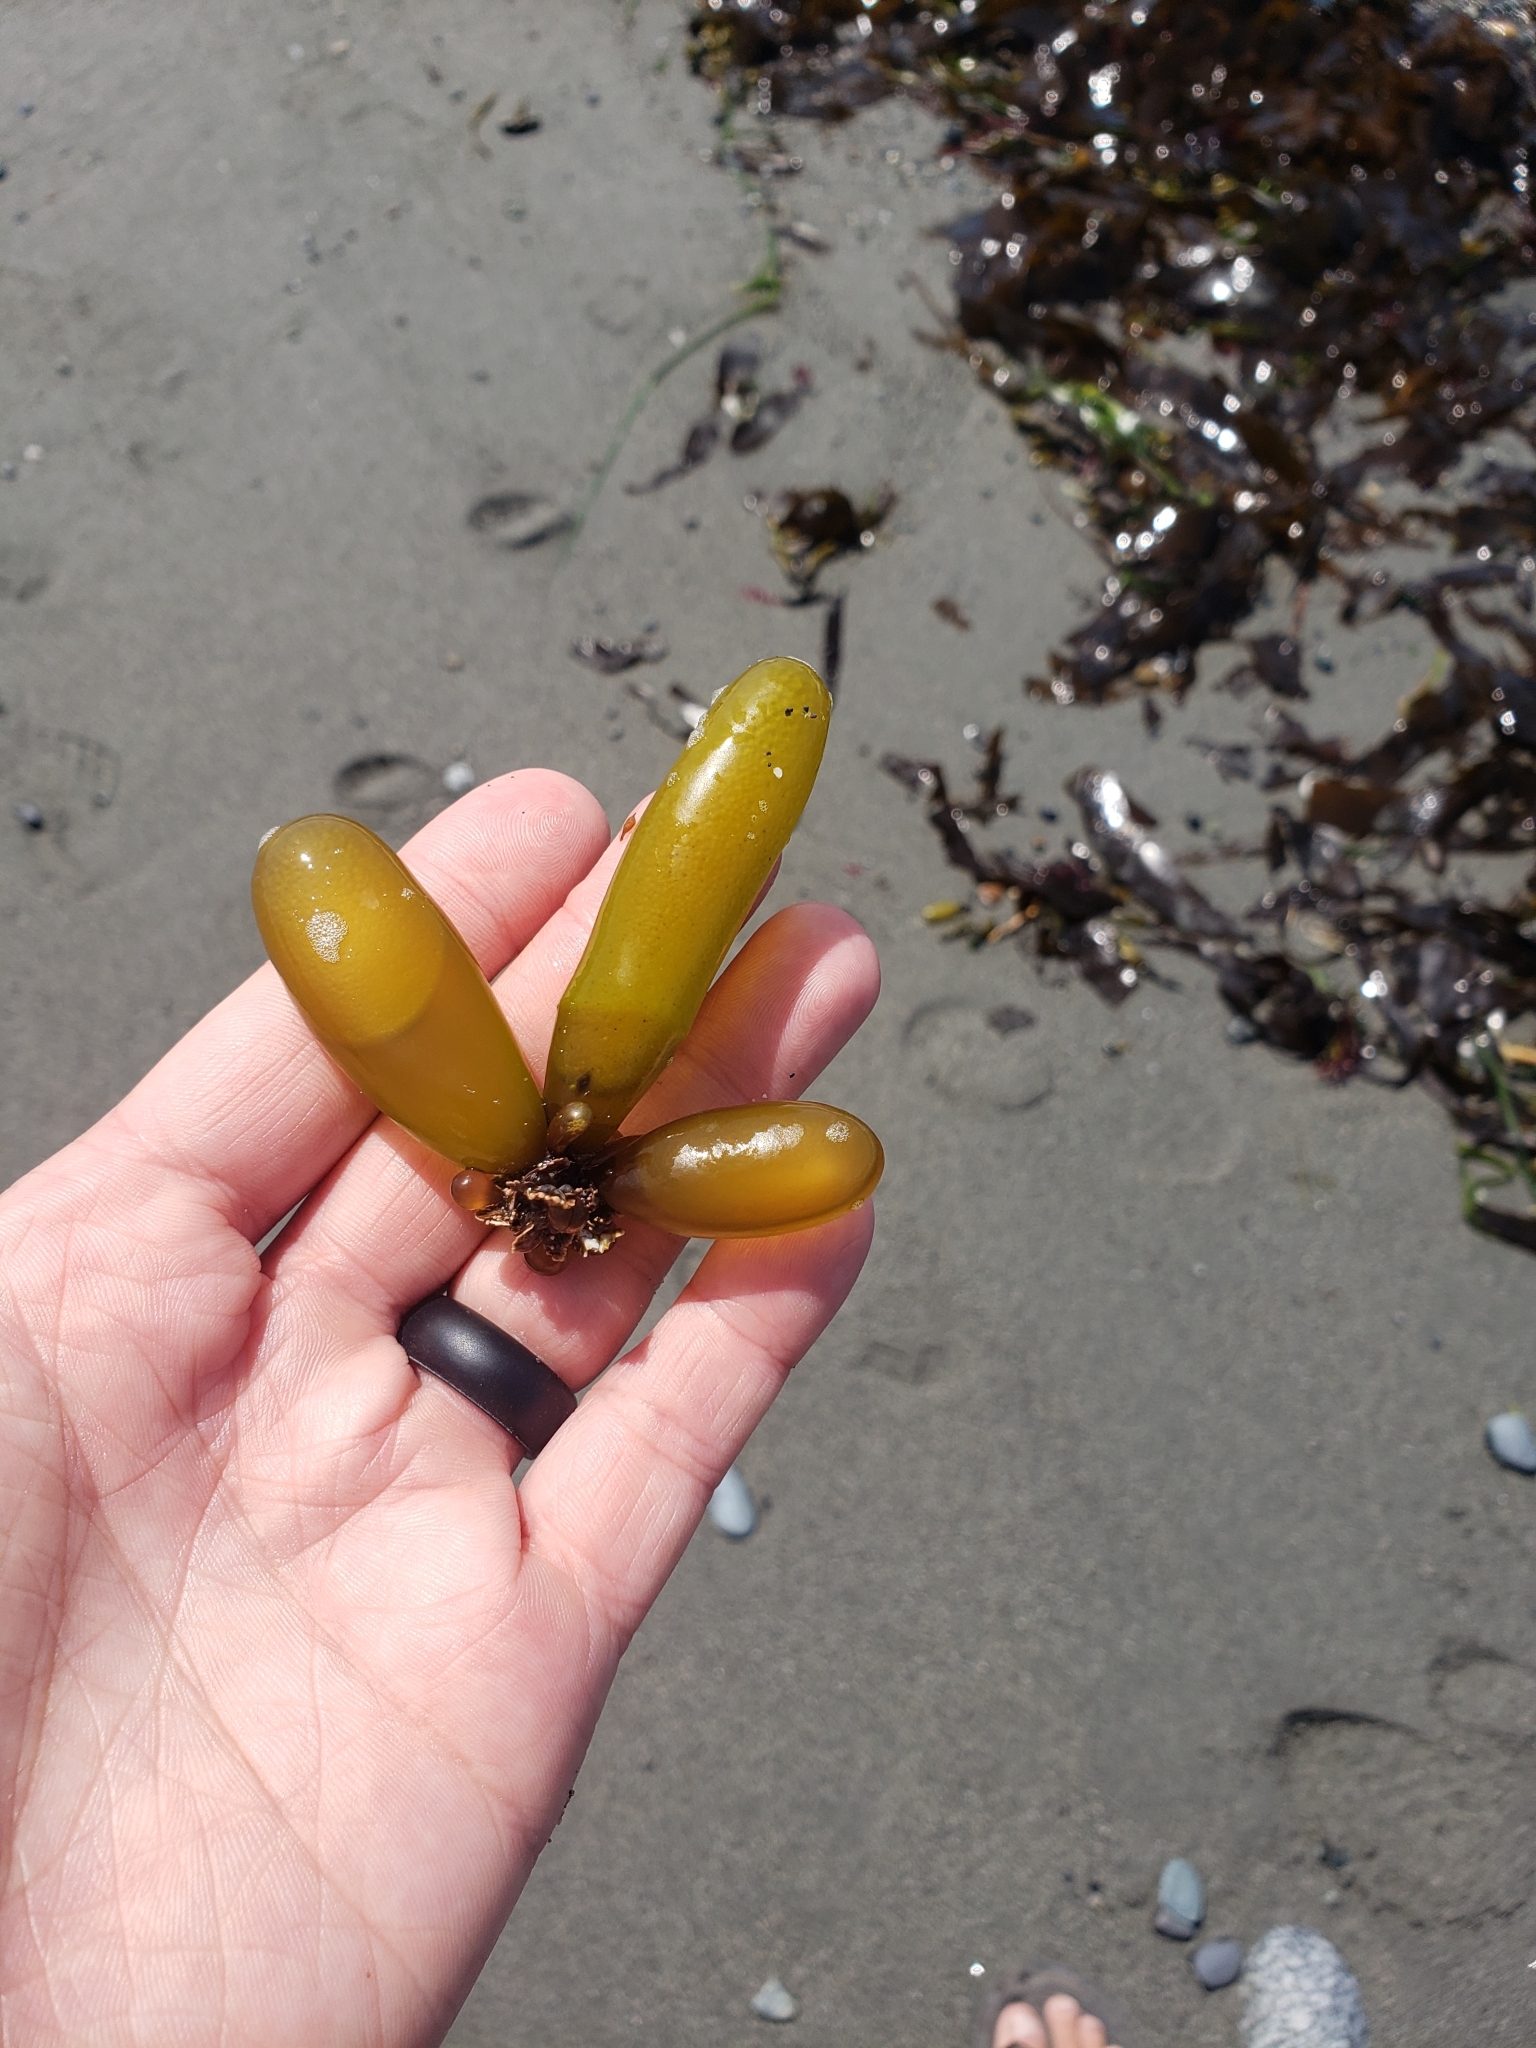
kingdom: Plantae
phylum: Rhodophyta
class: Florideophyceae
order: Palmariales
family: Palmariaceae
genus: Halosaccion
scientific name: Halosaccion glandiforme
